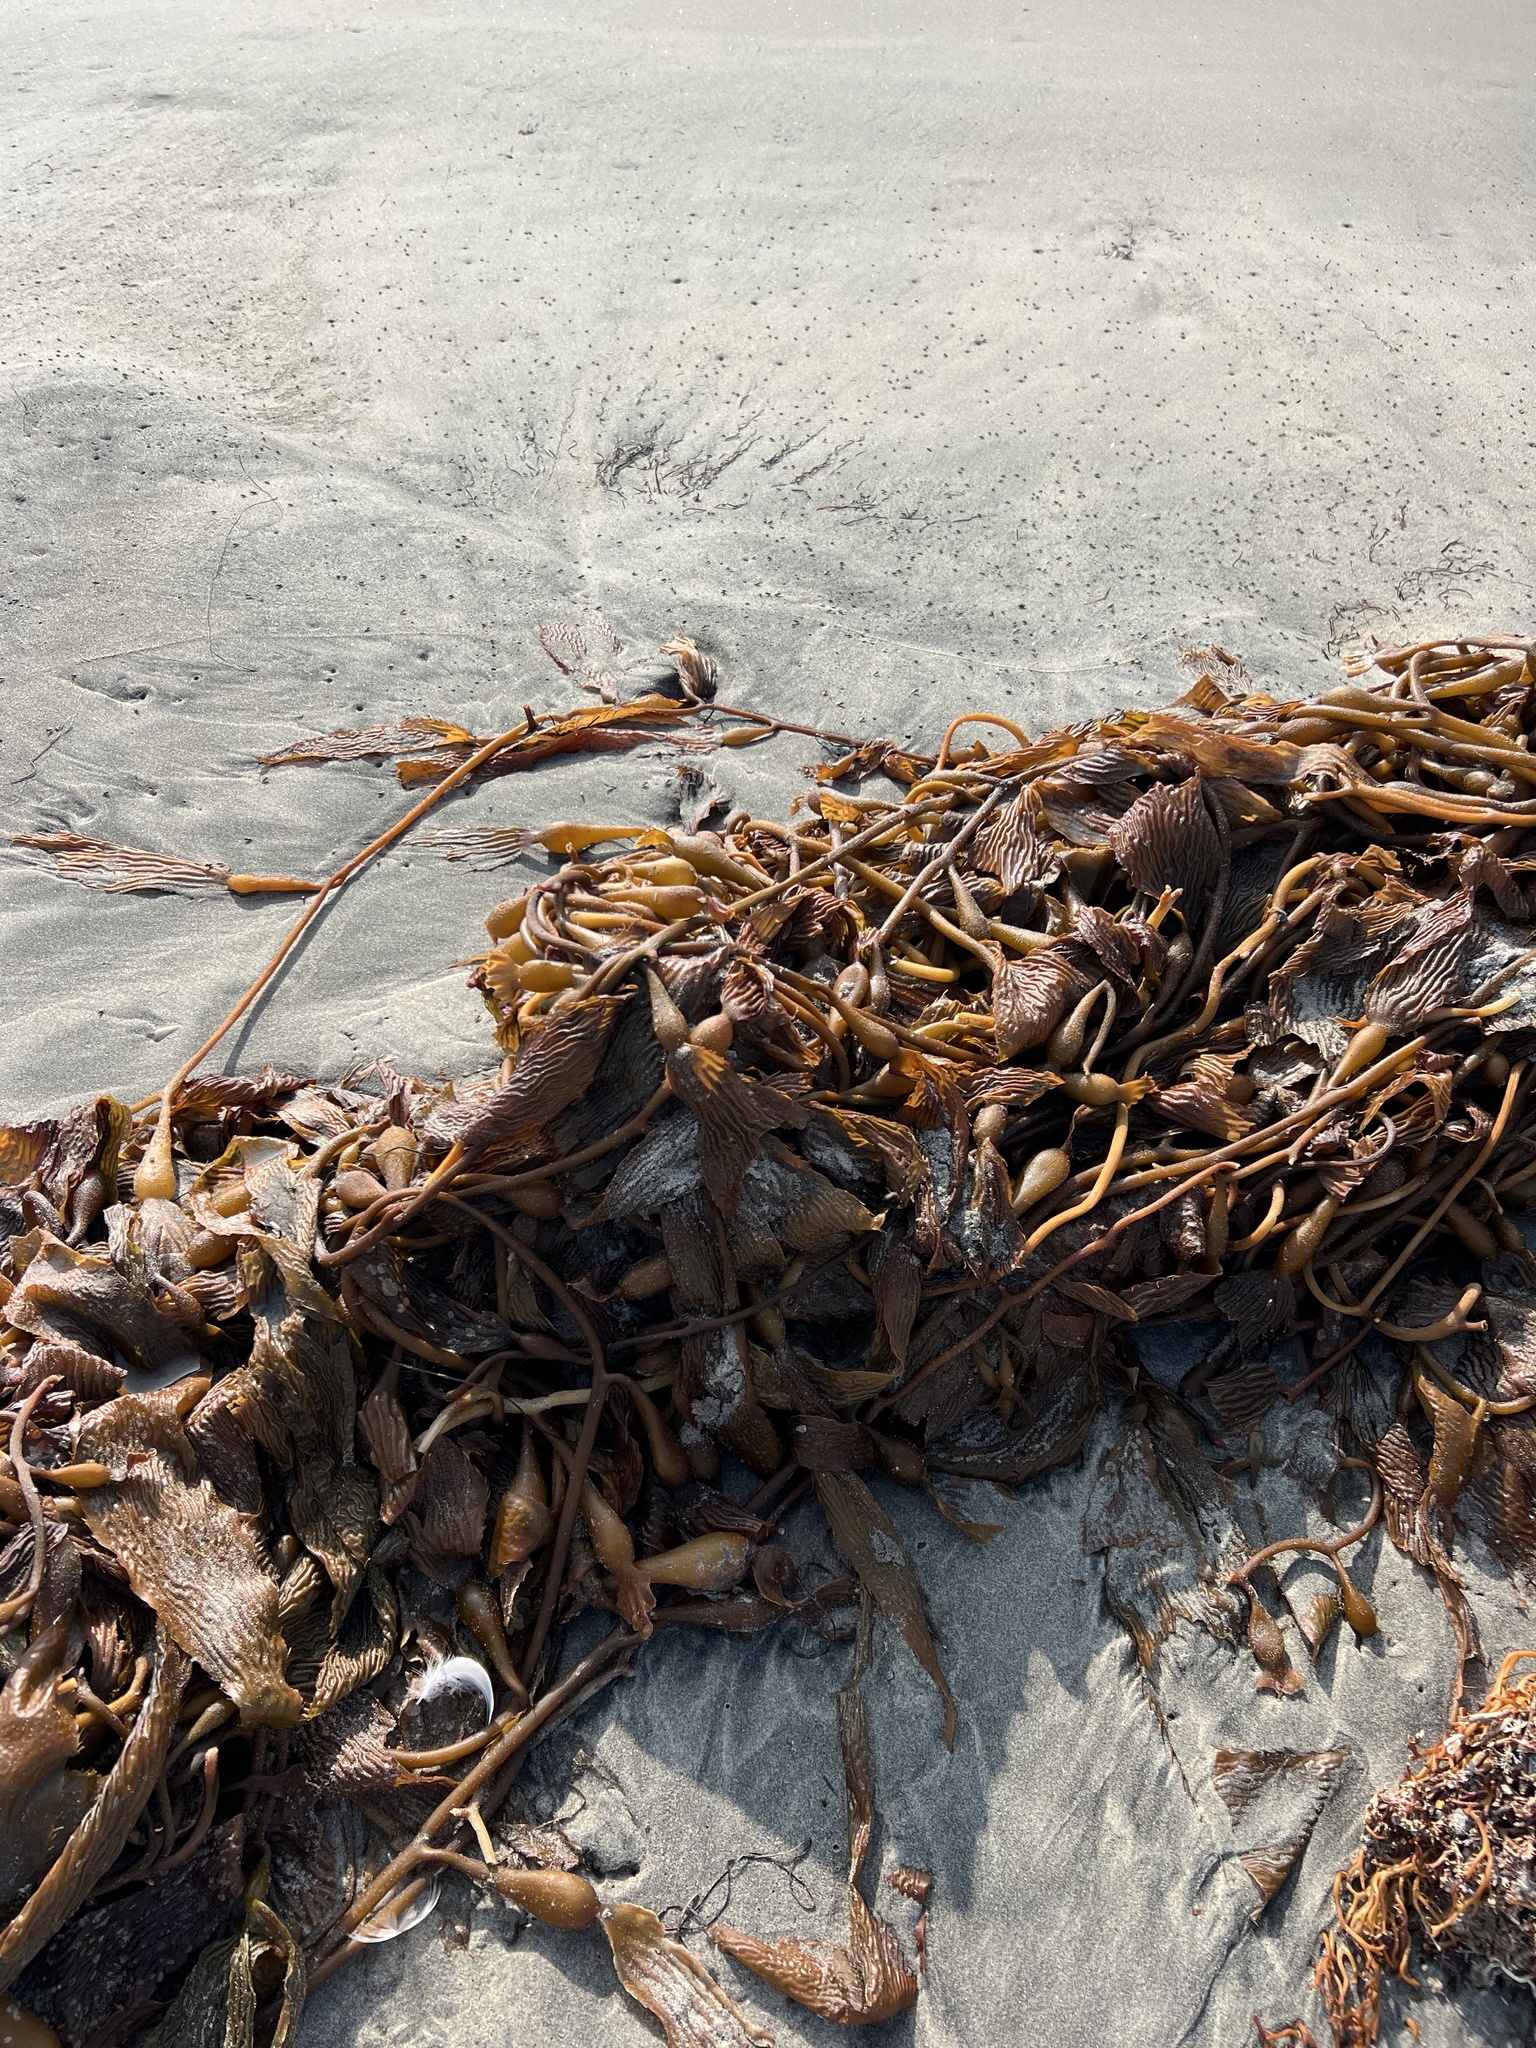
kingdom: Chromista
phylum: Ochrophyta
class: Phaeophyceae
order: Laminariales
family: Laminariaceae
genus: Macrocystis
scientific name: Macrocystis pyrifera
